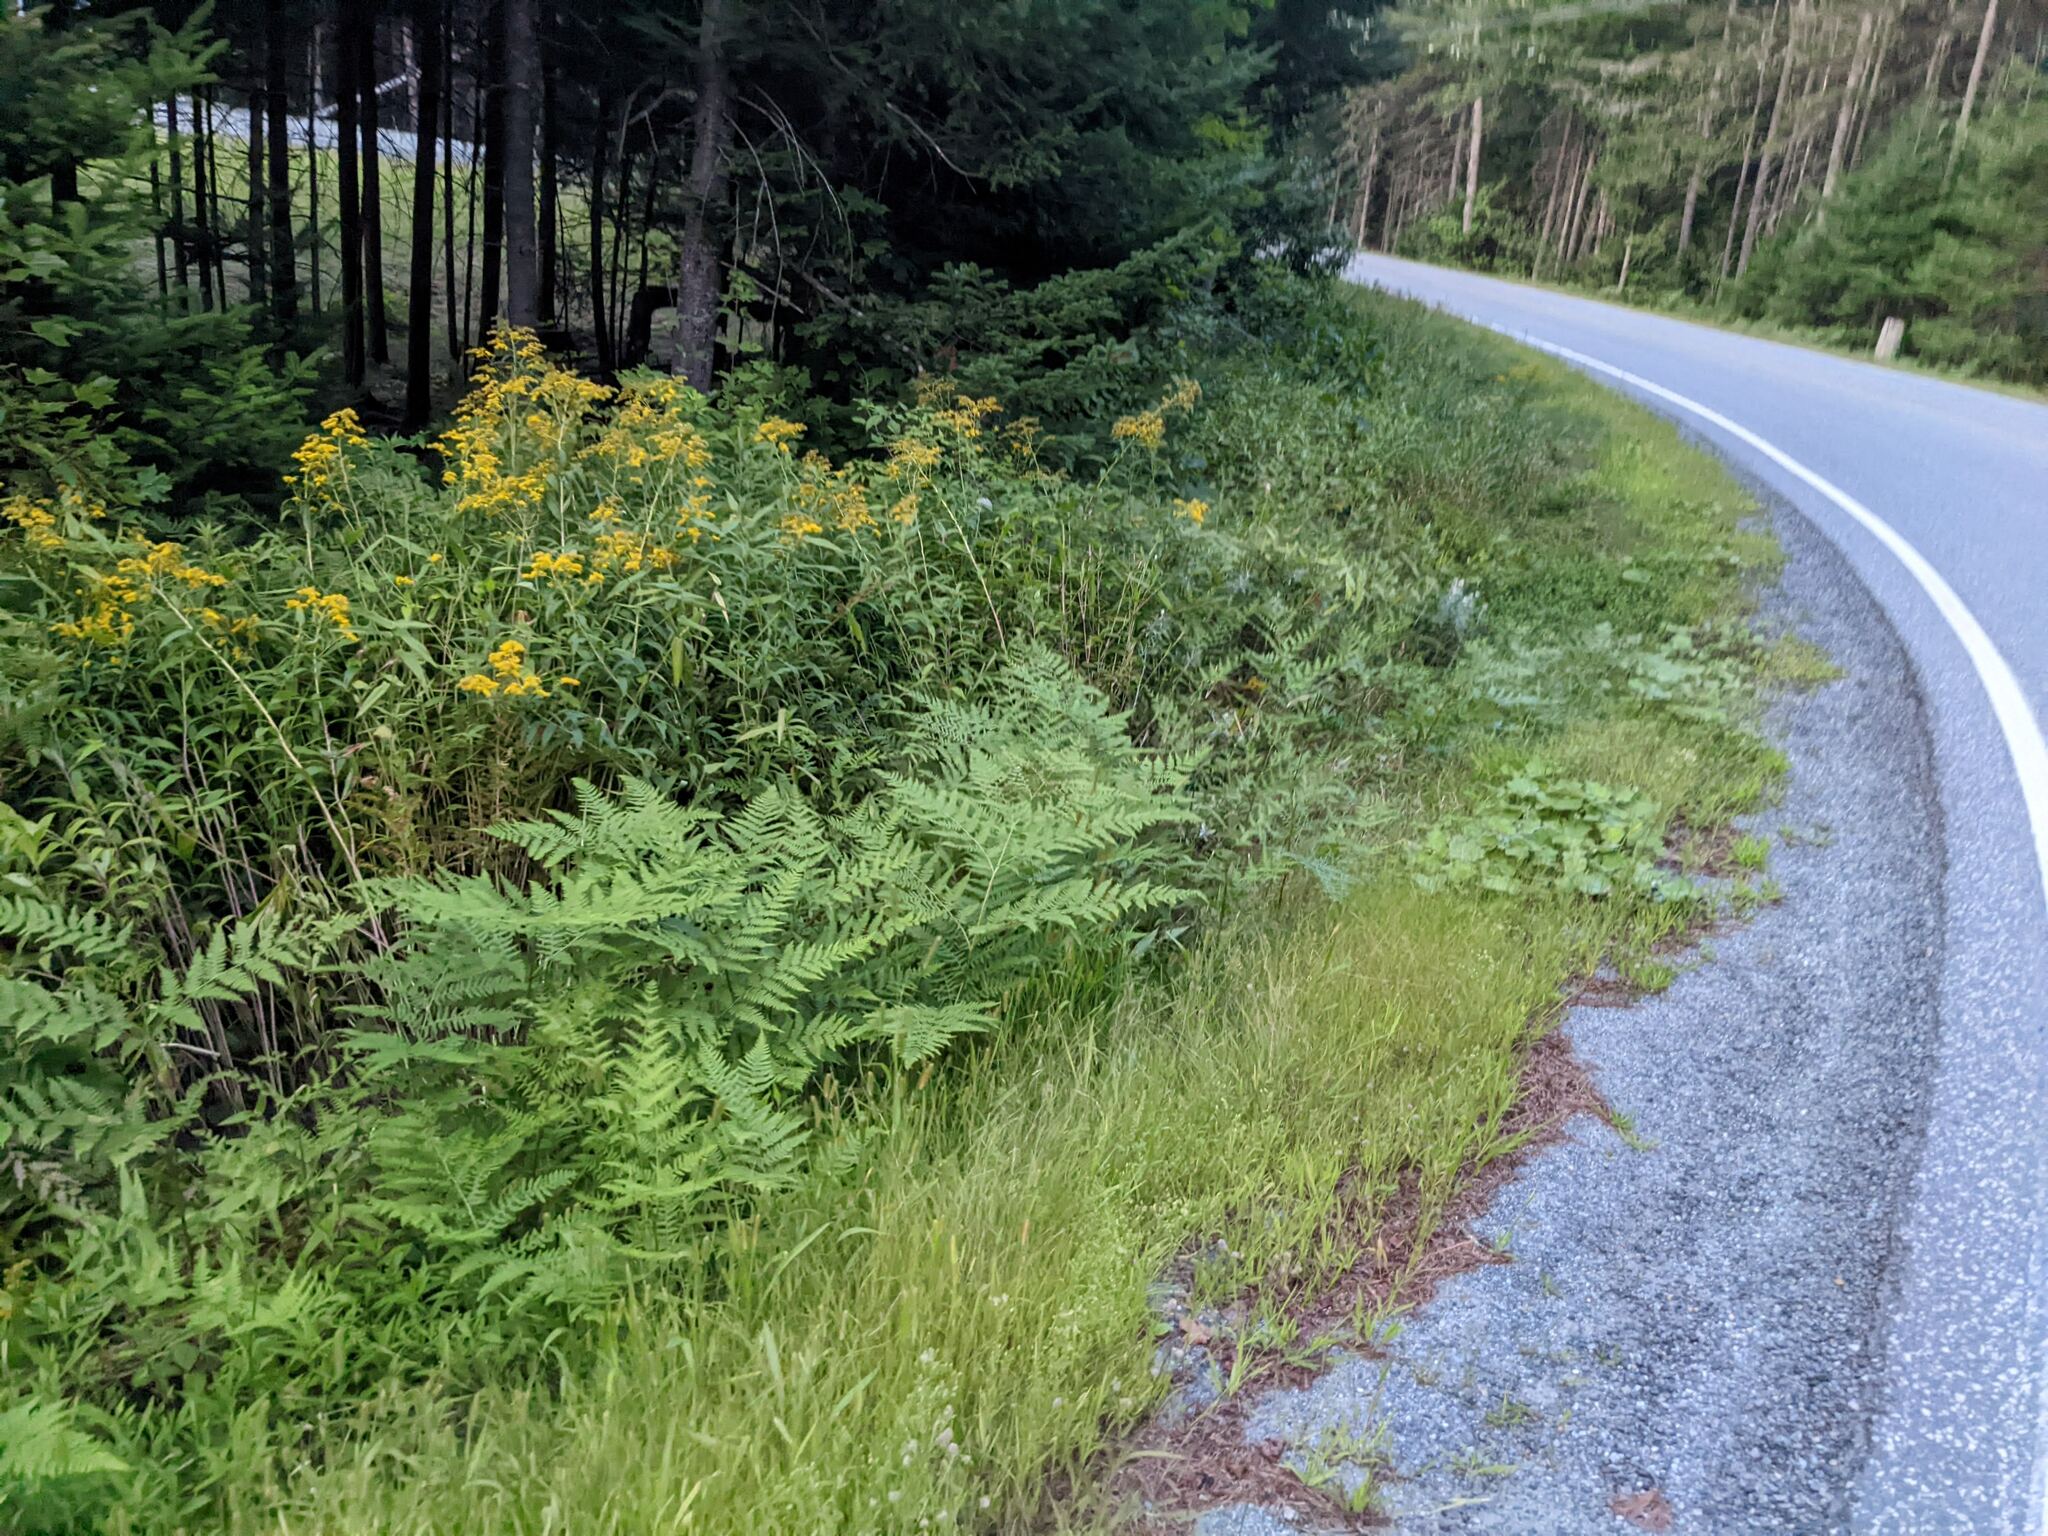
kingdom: Plantae
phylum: Tracheophyta
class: Polypodiopsida
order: Polypodiales
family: Dennstaedtiaceae
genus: Pteridium
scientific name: Pteridium aquilinum
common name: Bracken
